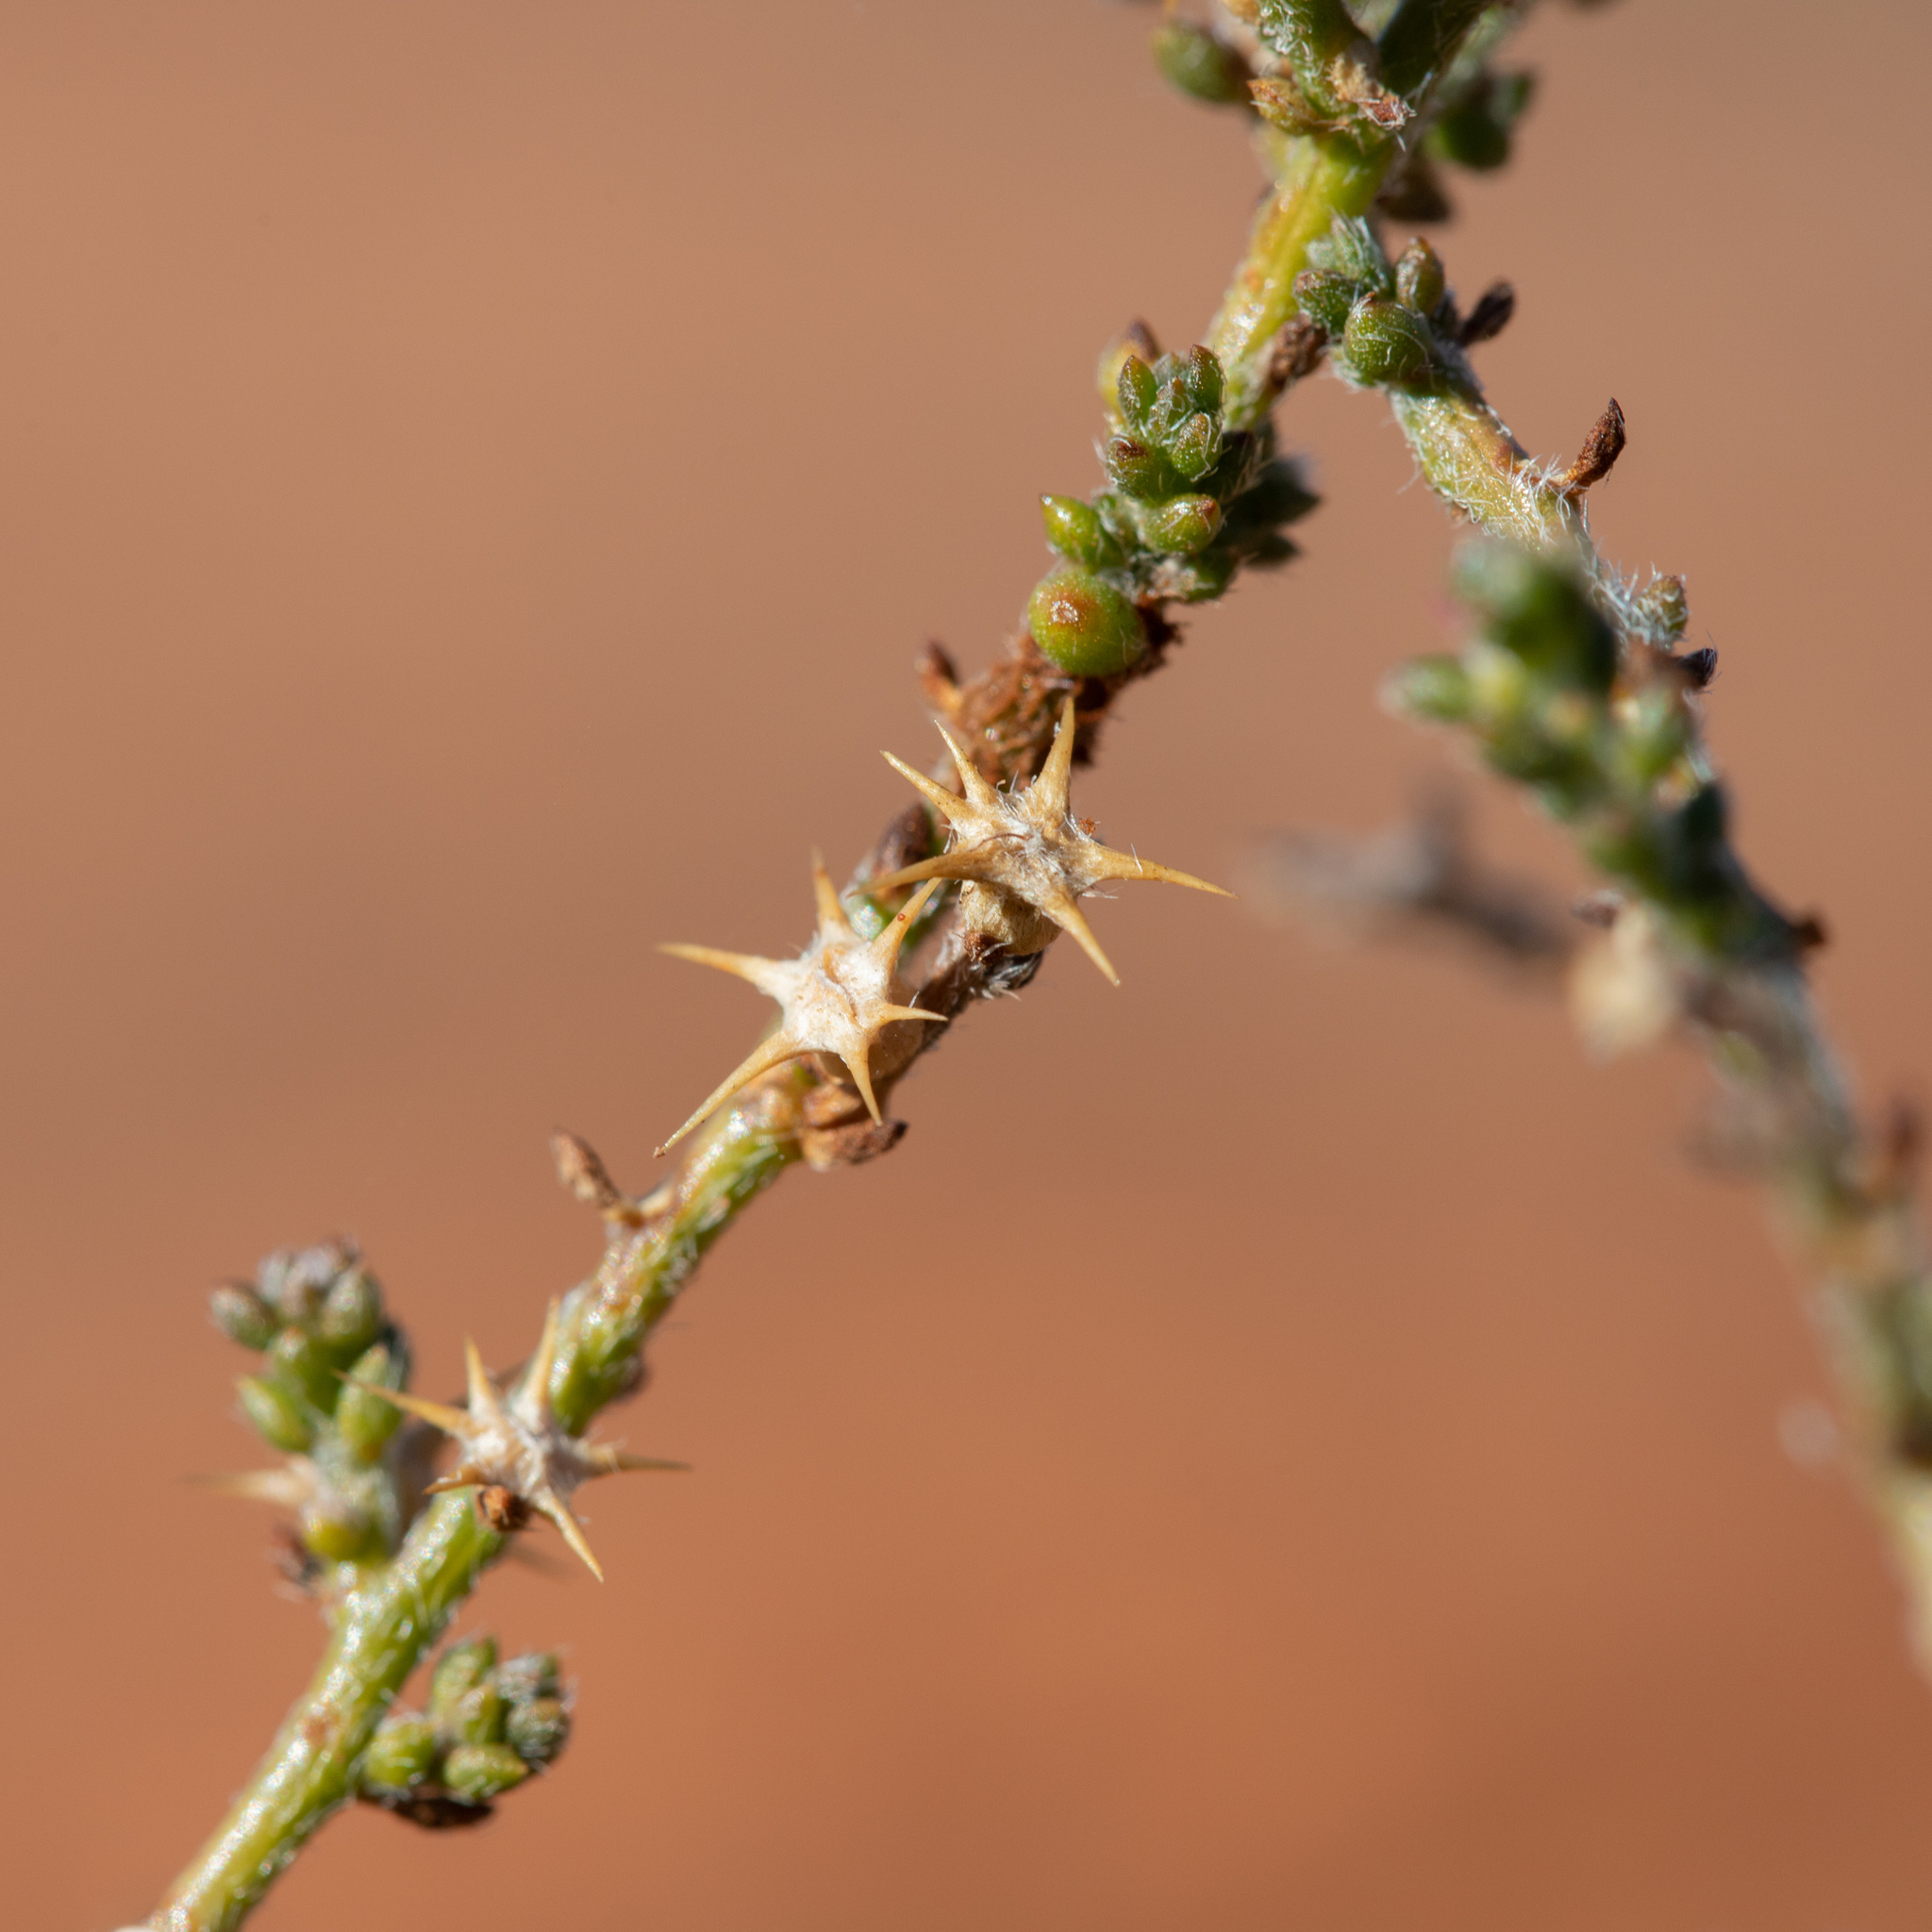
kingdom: Plantae
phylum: Tracheophyta
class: Magnoliopsida
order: Caryophyllales
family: Amaranthaceae
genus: Sclerolaena
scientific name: Sclerolaena parviflora
